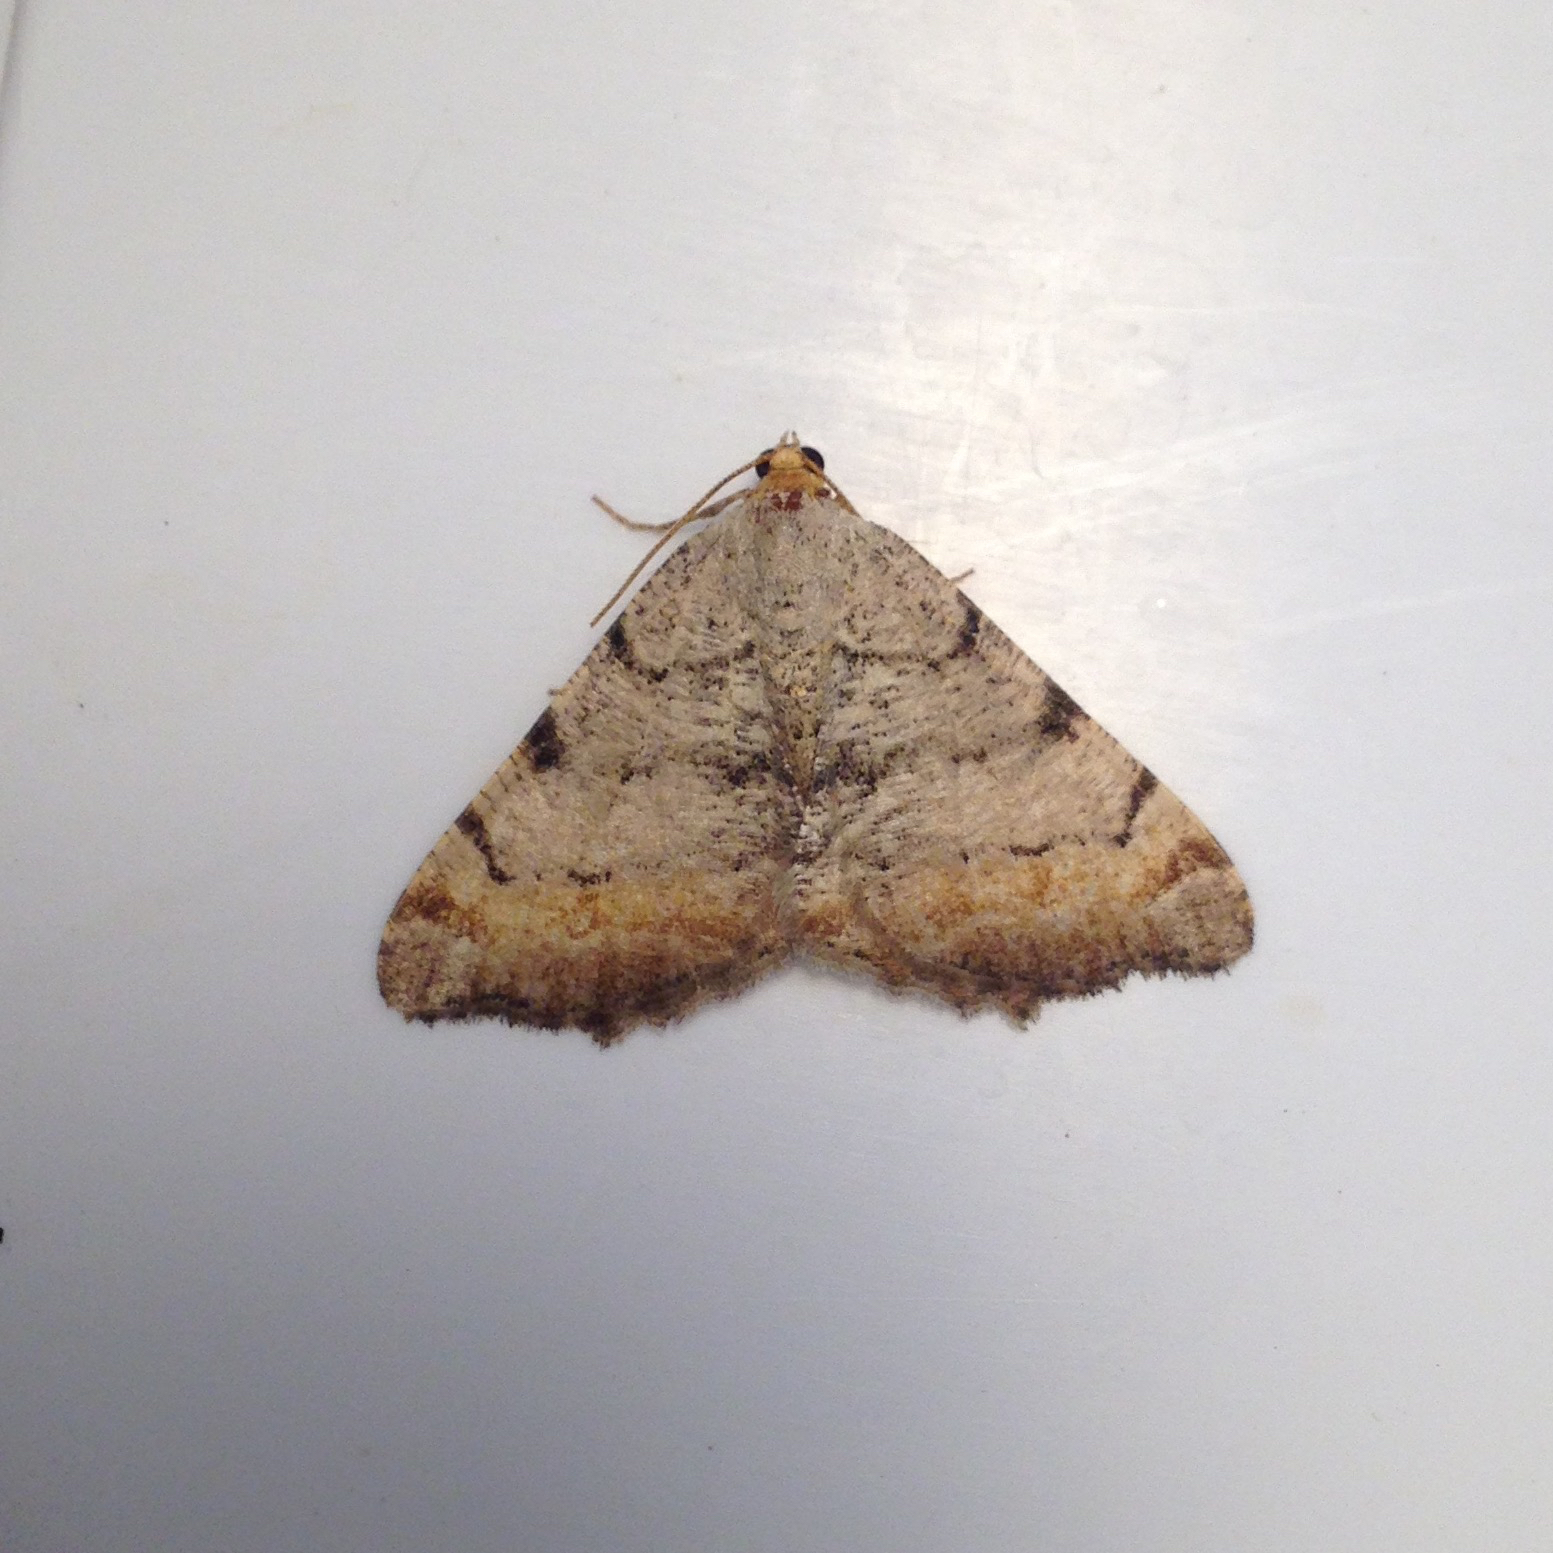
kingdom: Animalia
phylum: Arthropoda
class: Insecta
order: Lepidoptera
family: Geometridae
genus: Macaria
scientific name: Macaria adonis
